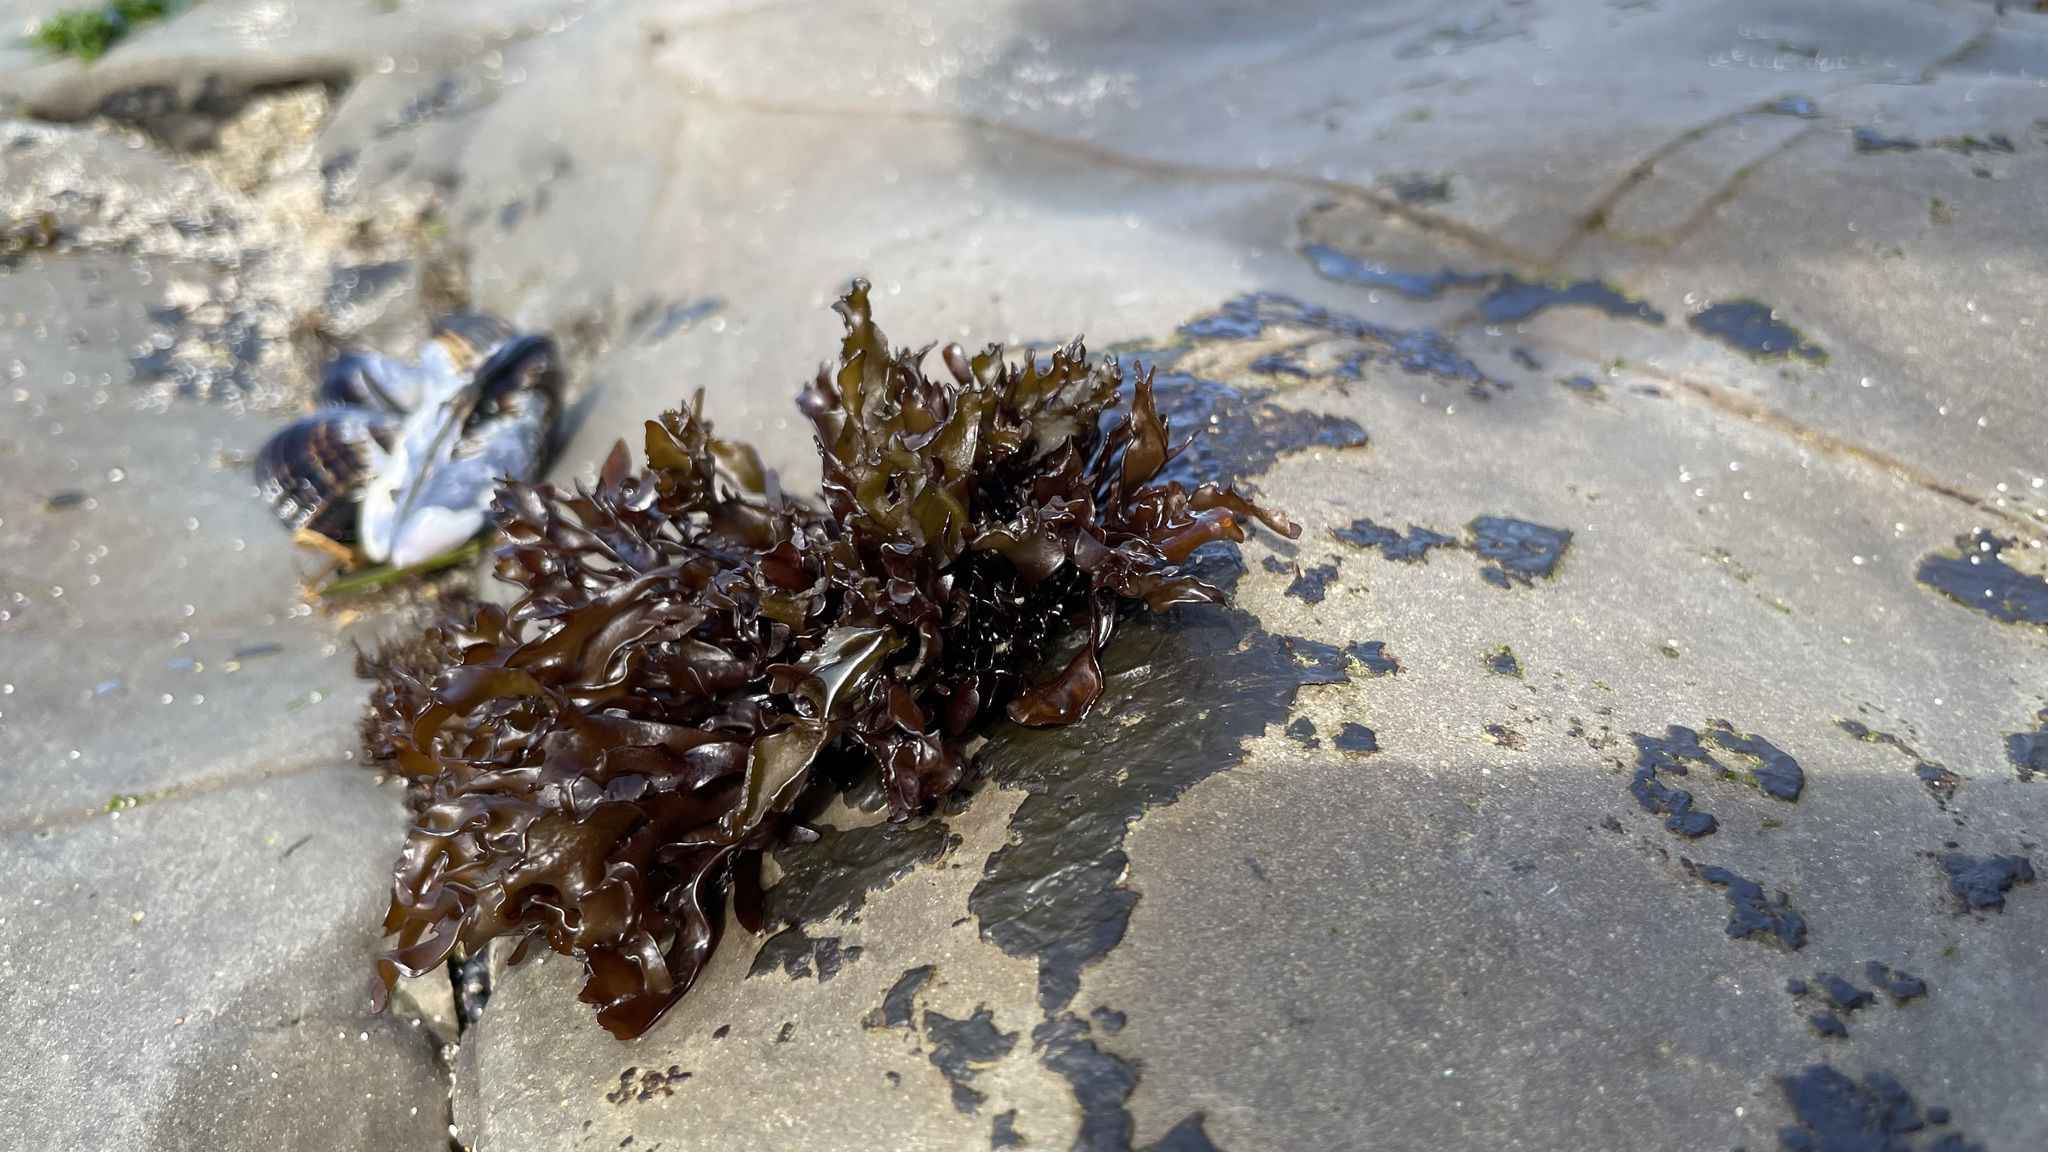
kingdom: Plantae
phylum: Rhodophyta
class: Florideophyceae
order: Gigartinales
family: Phyllophoraceae
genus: Mastocarpus
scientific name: Mastocarpus papillatus
